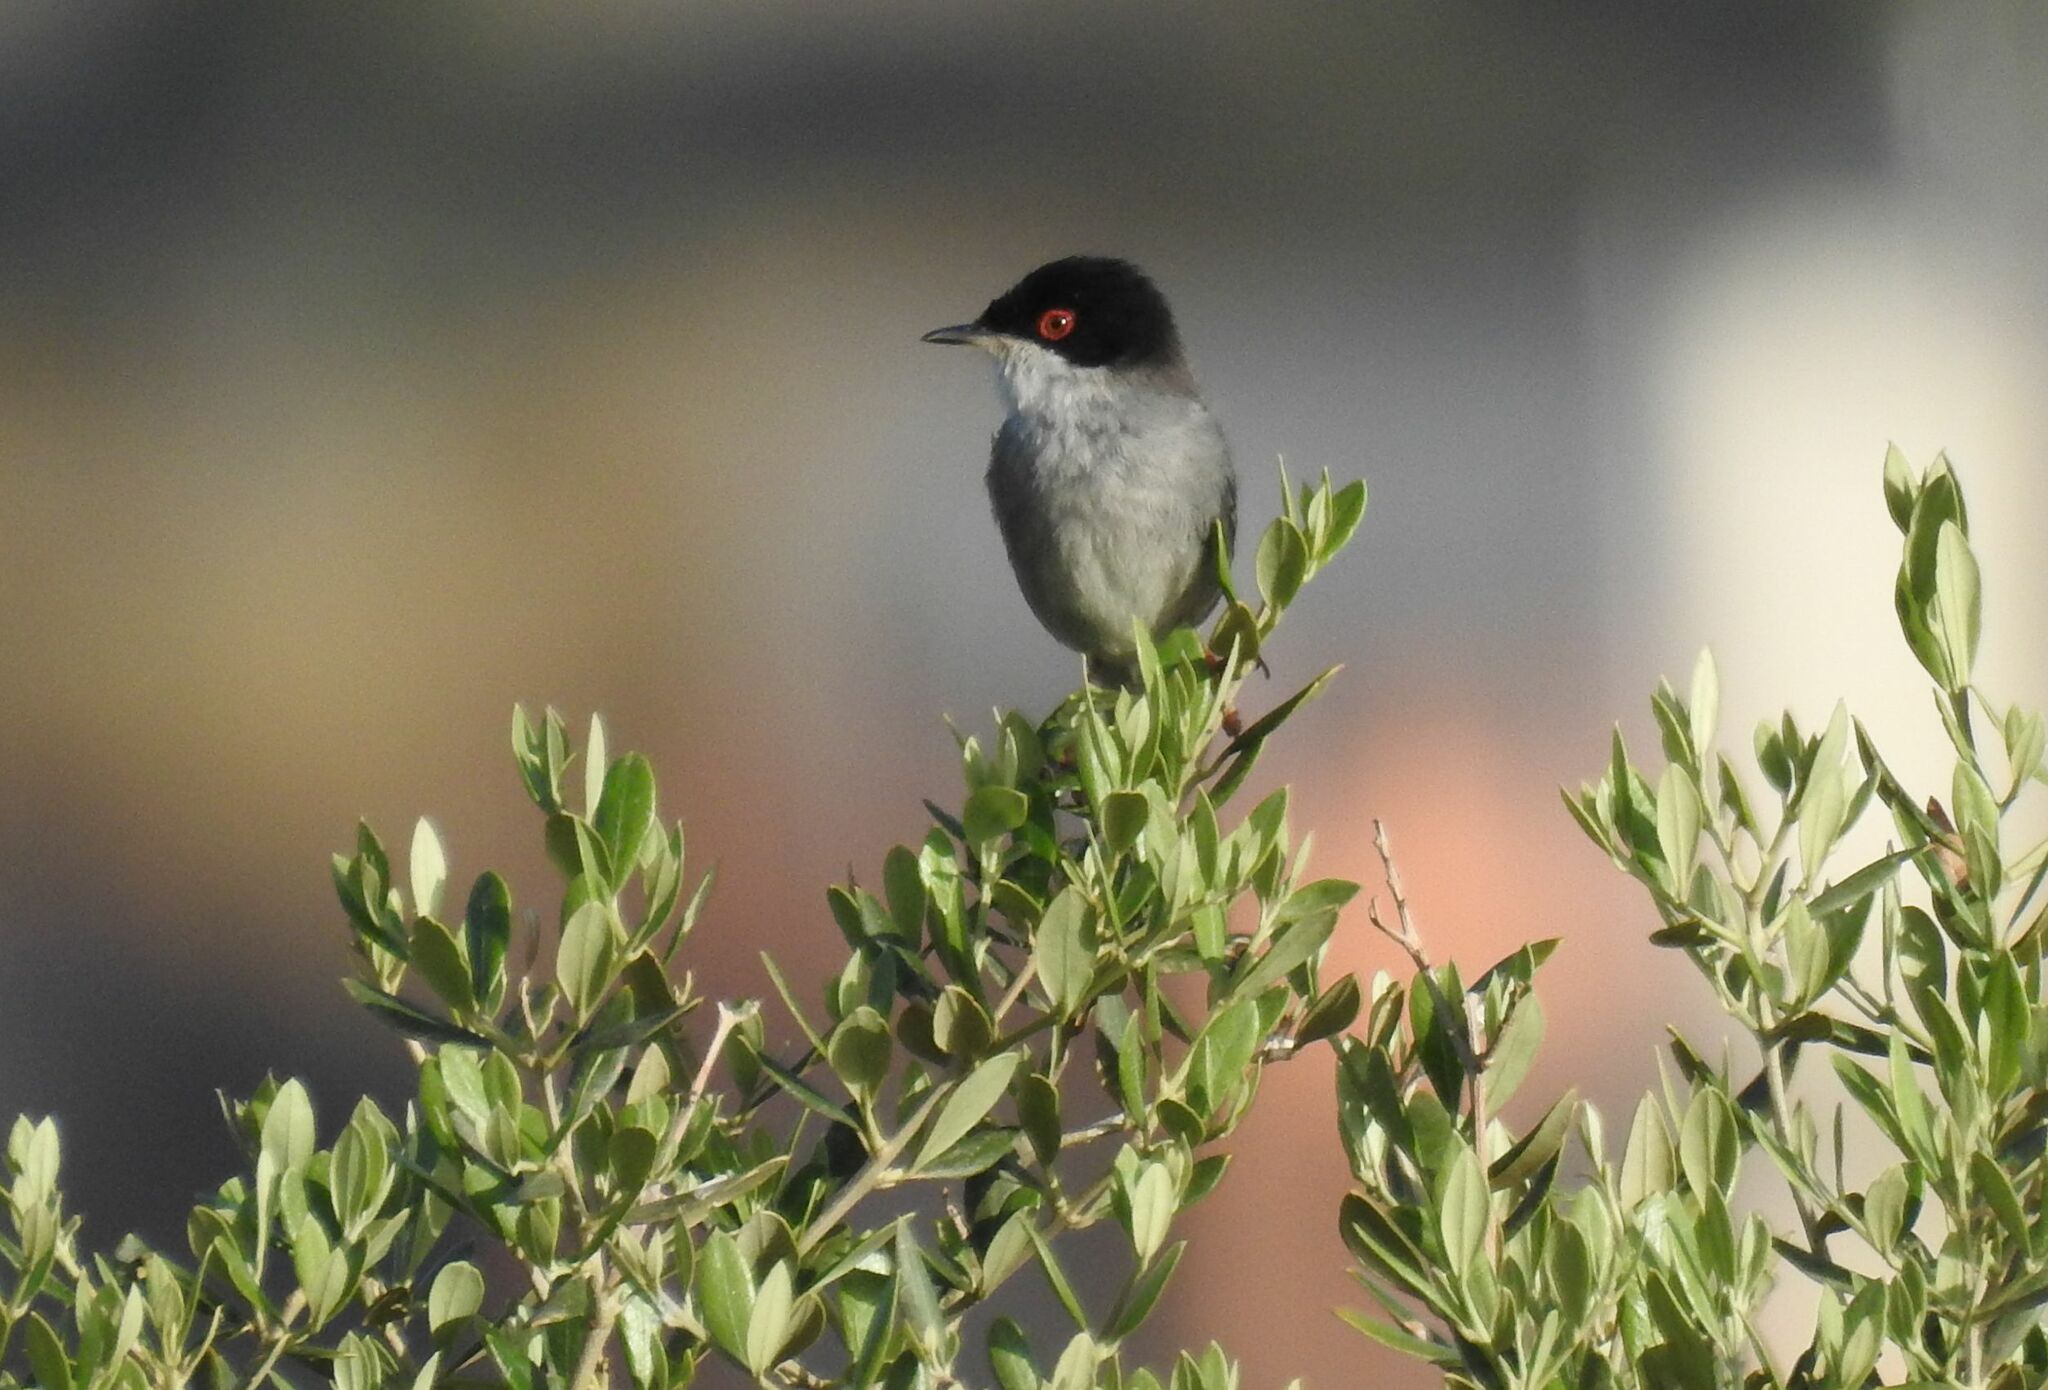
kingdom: Animalia
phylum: Chordata
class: Aves
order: Passeriformes
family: Sylviidae
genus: Curruca
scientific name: Curruca melanocephala
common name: Sardinian warbler
